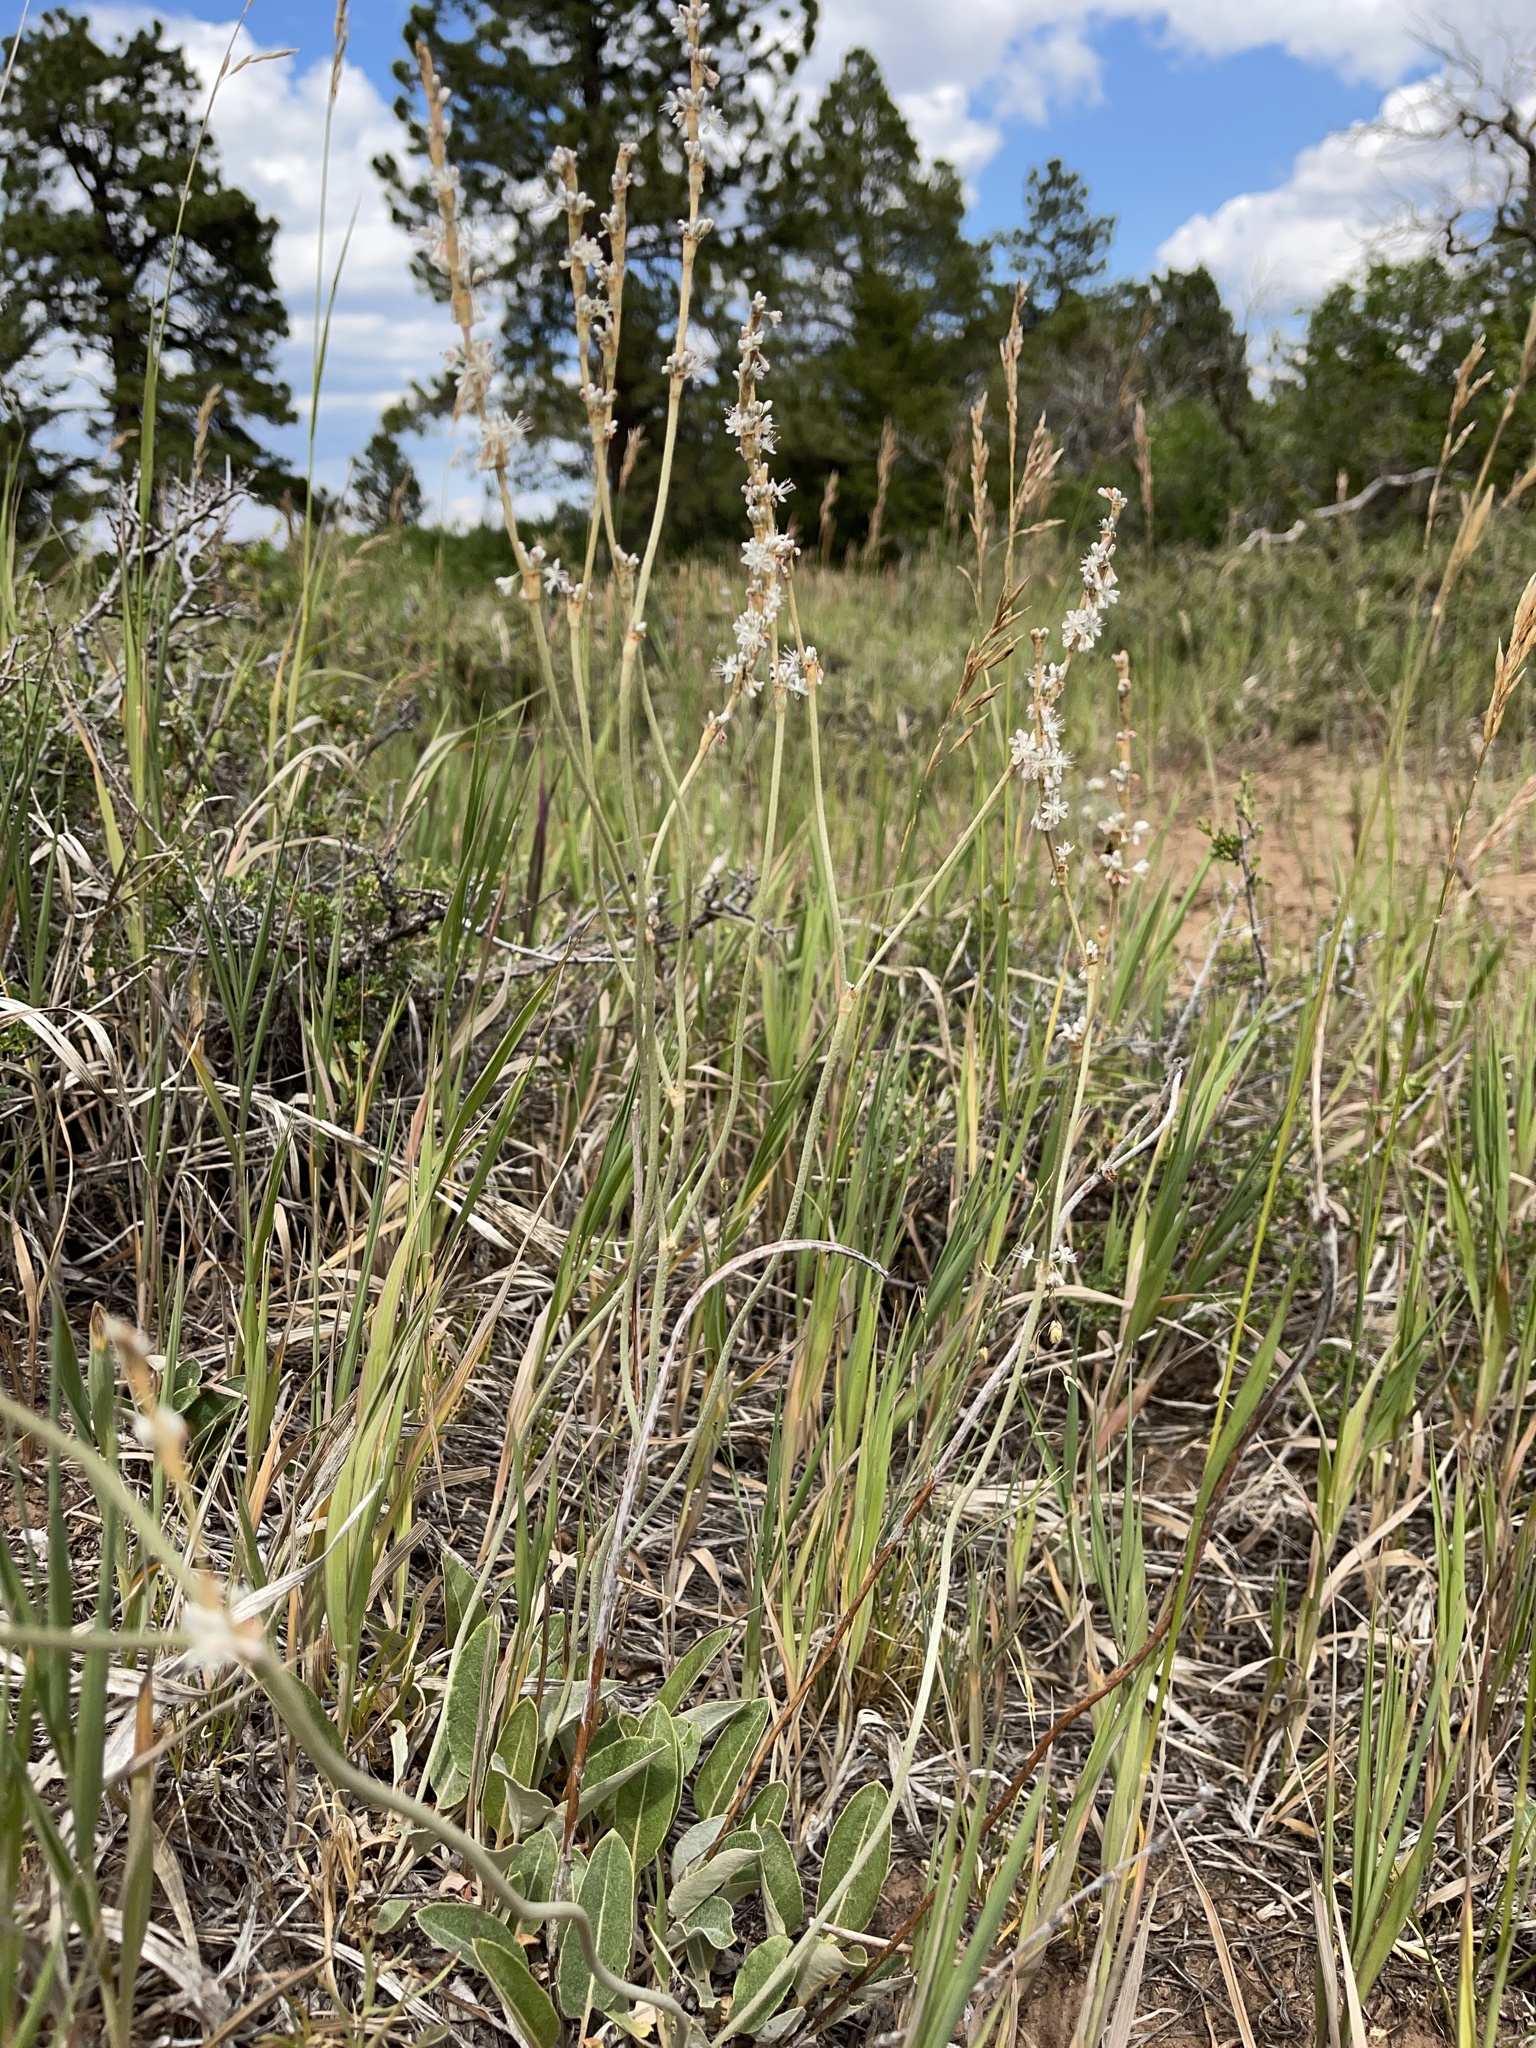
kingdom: Plantae
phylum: Tracheophyta
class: Magnoliopsida
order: Caryophyllales
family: Polygonaceae
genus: Eriogonum
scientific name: Eriogonum racemosum
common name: Redroot wild buckwheat
